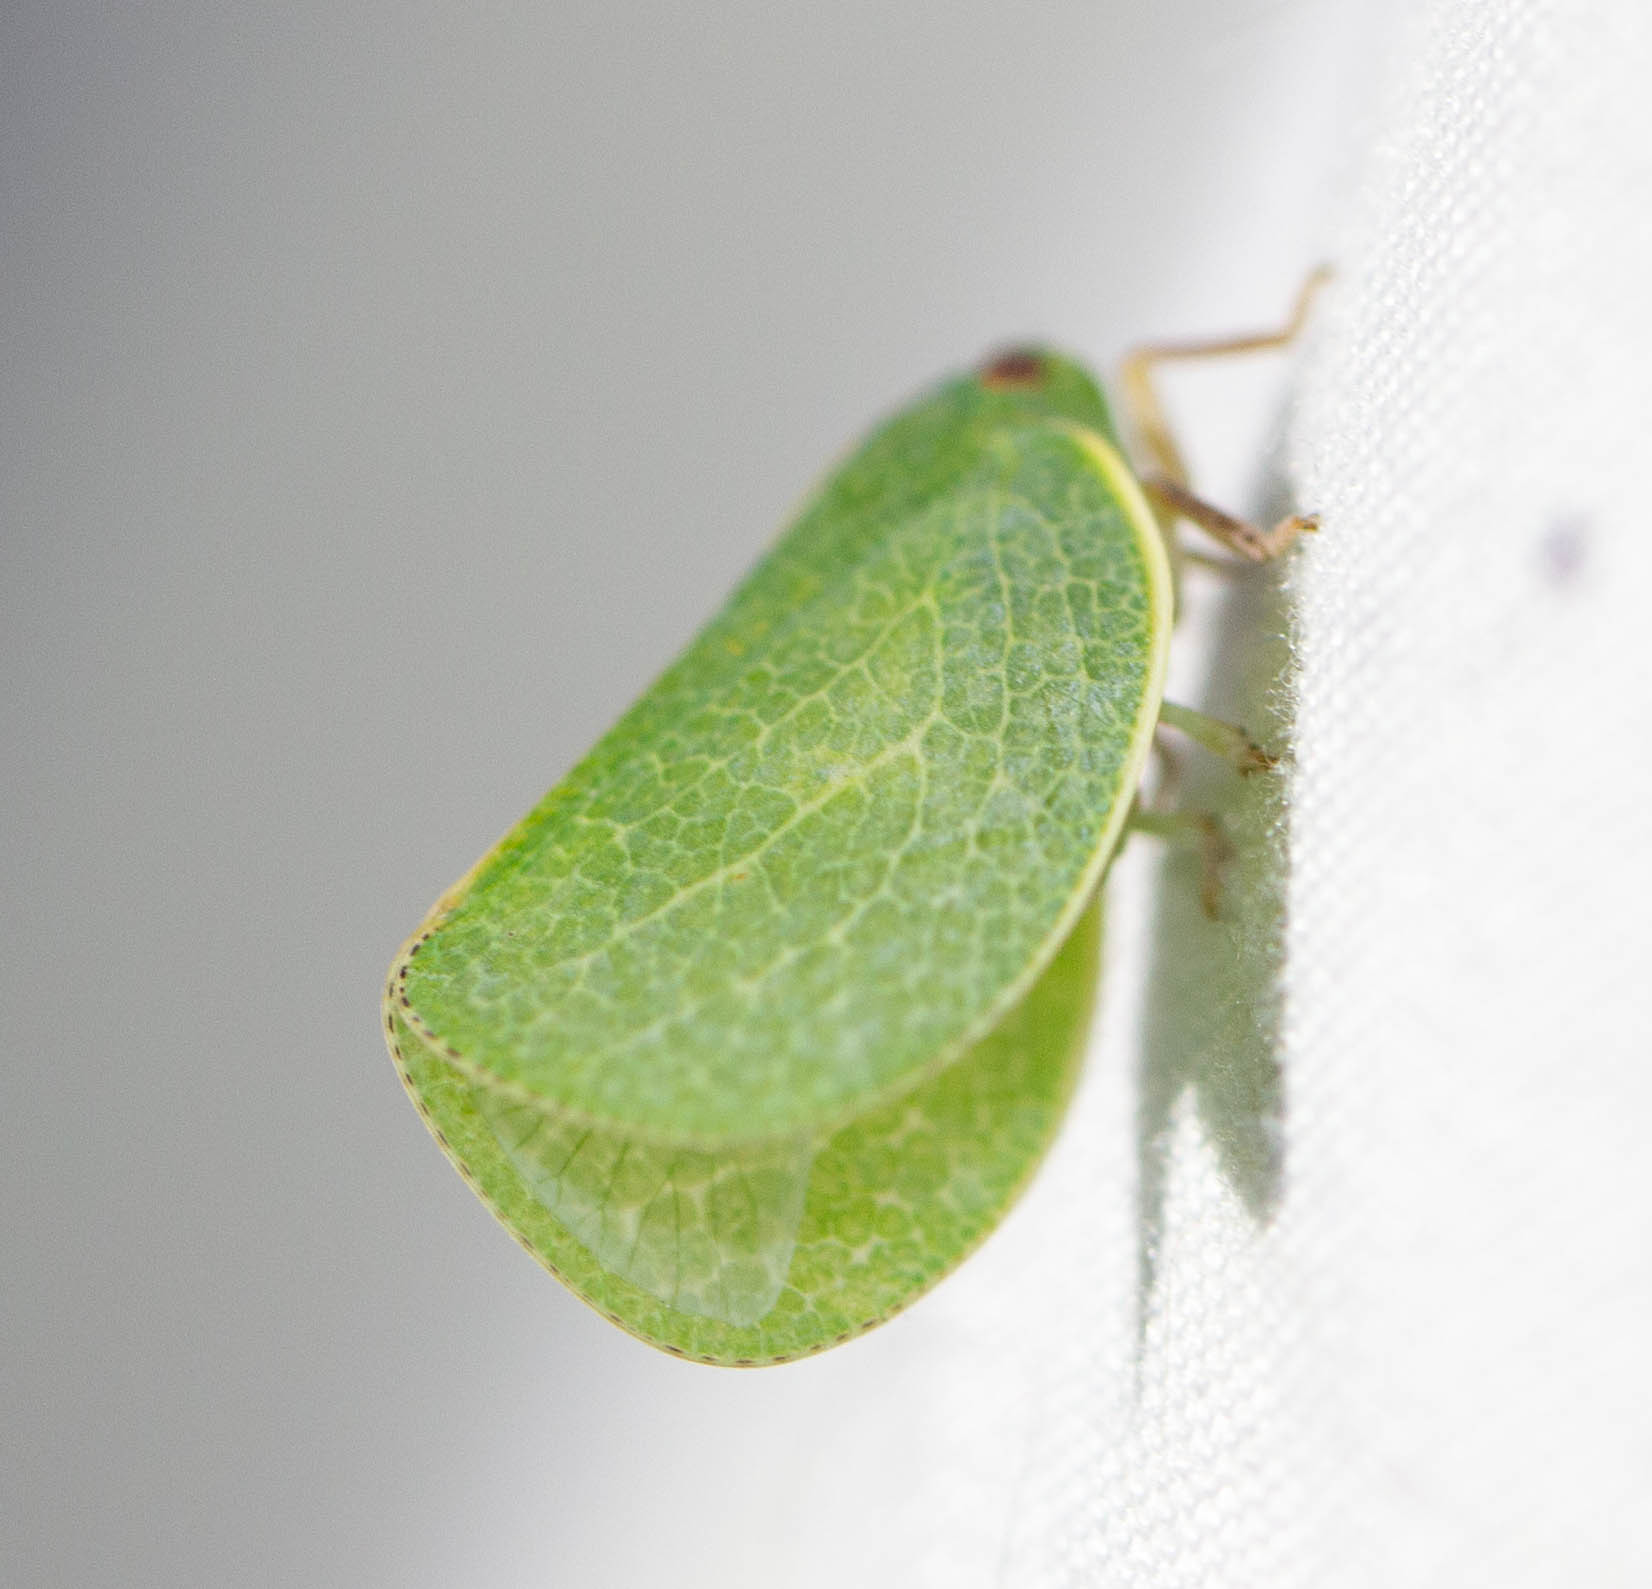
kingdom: Animalia
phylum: Arthropoda
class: Insecta
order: Hemiptera
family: Acanaloniidae
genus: Acanalonia
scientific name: Acanalonia servillei
